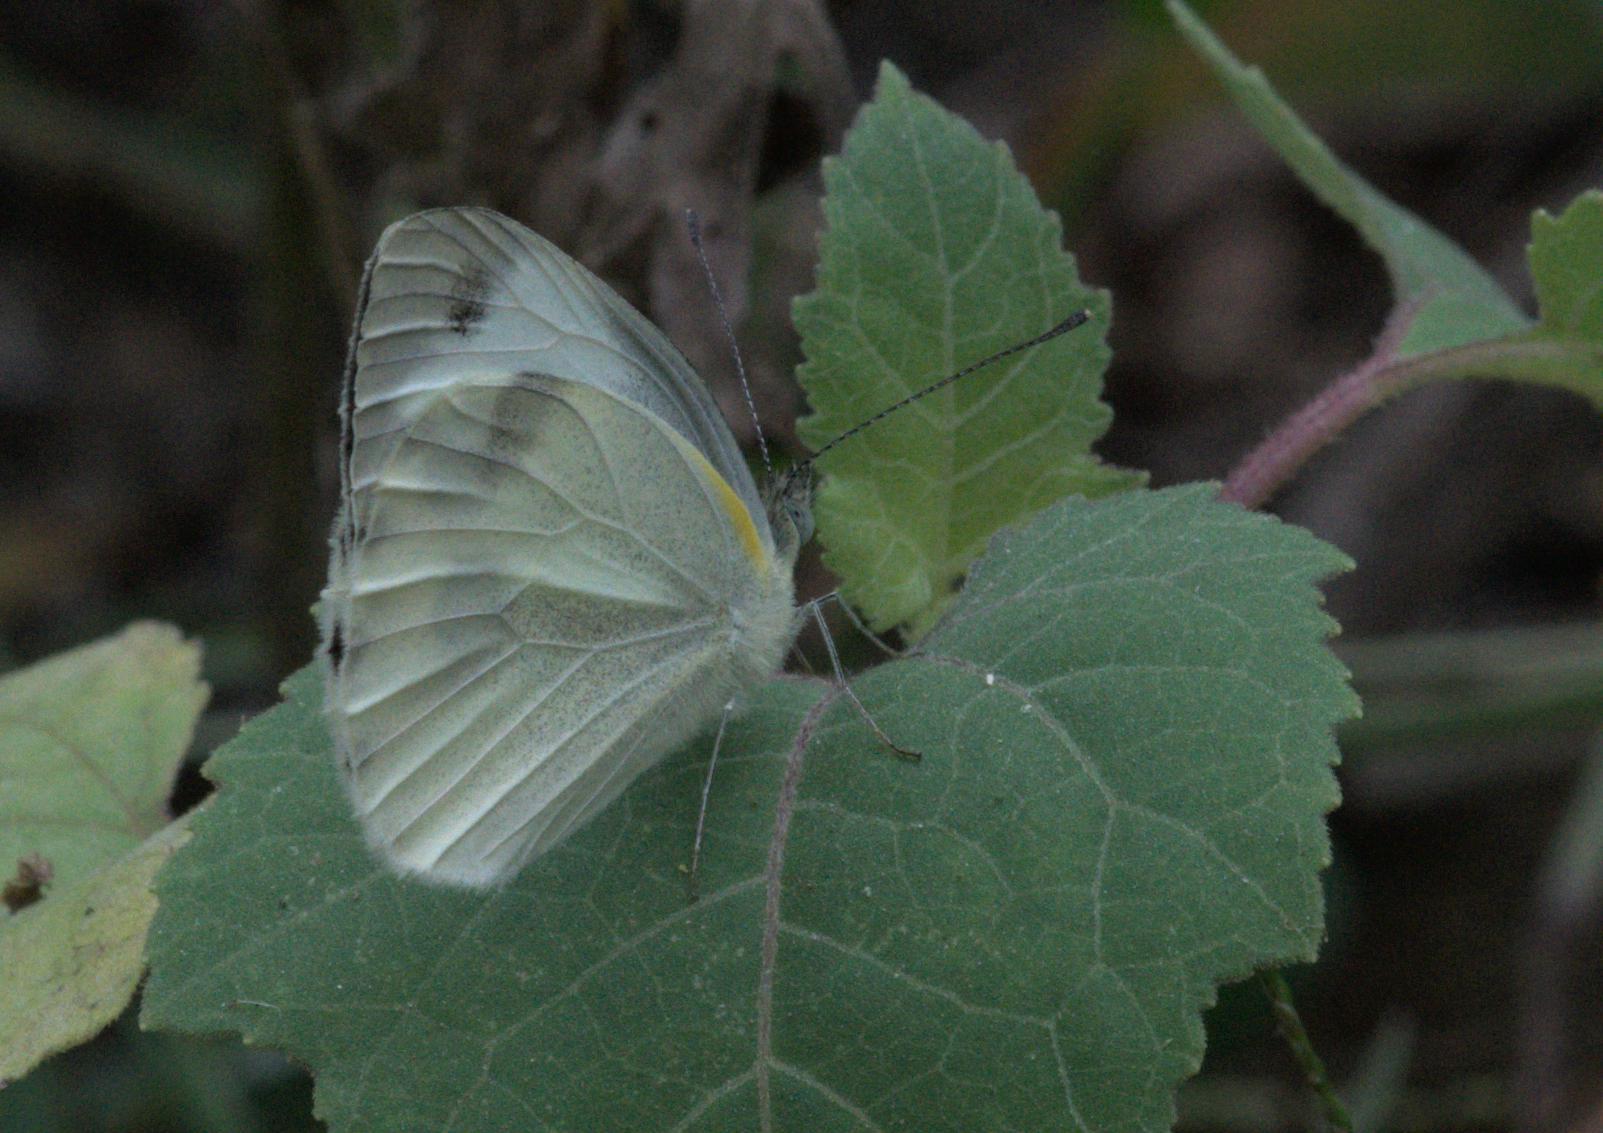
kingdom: Animalia
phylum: Arthropoda
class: Insecta
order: Lepidoptera
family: Pieridae
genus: Pieris
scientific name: Pieris canidia
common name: Indian cabbage white
